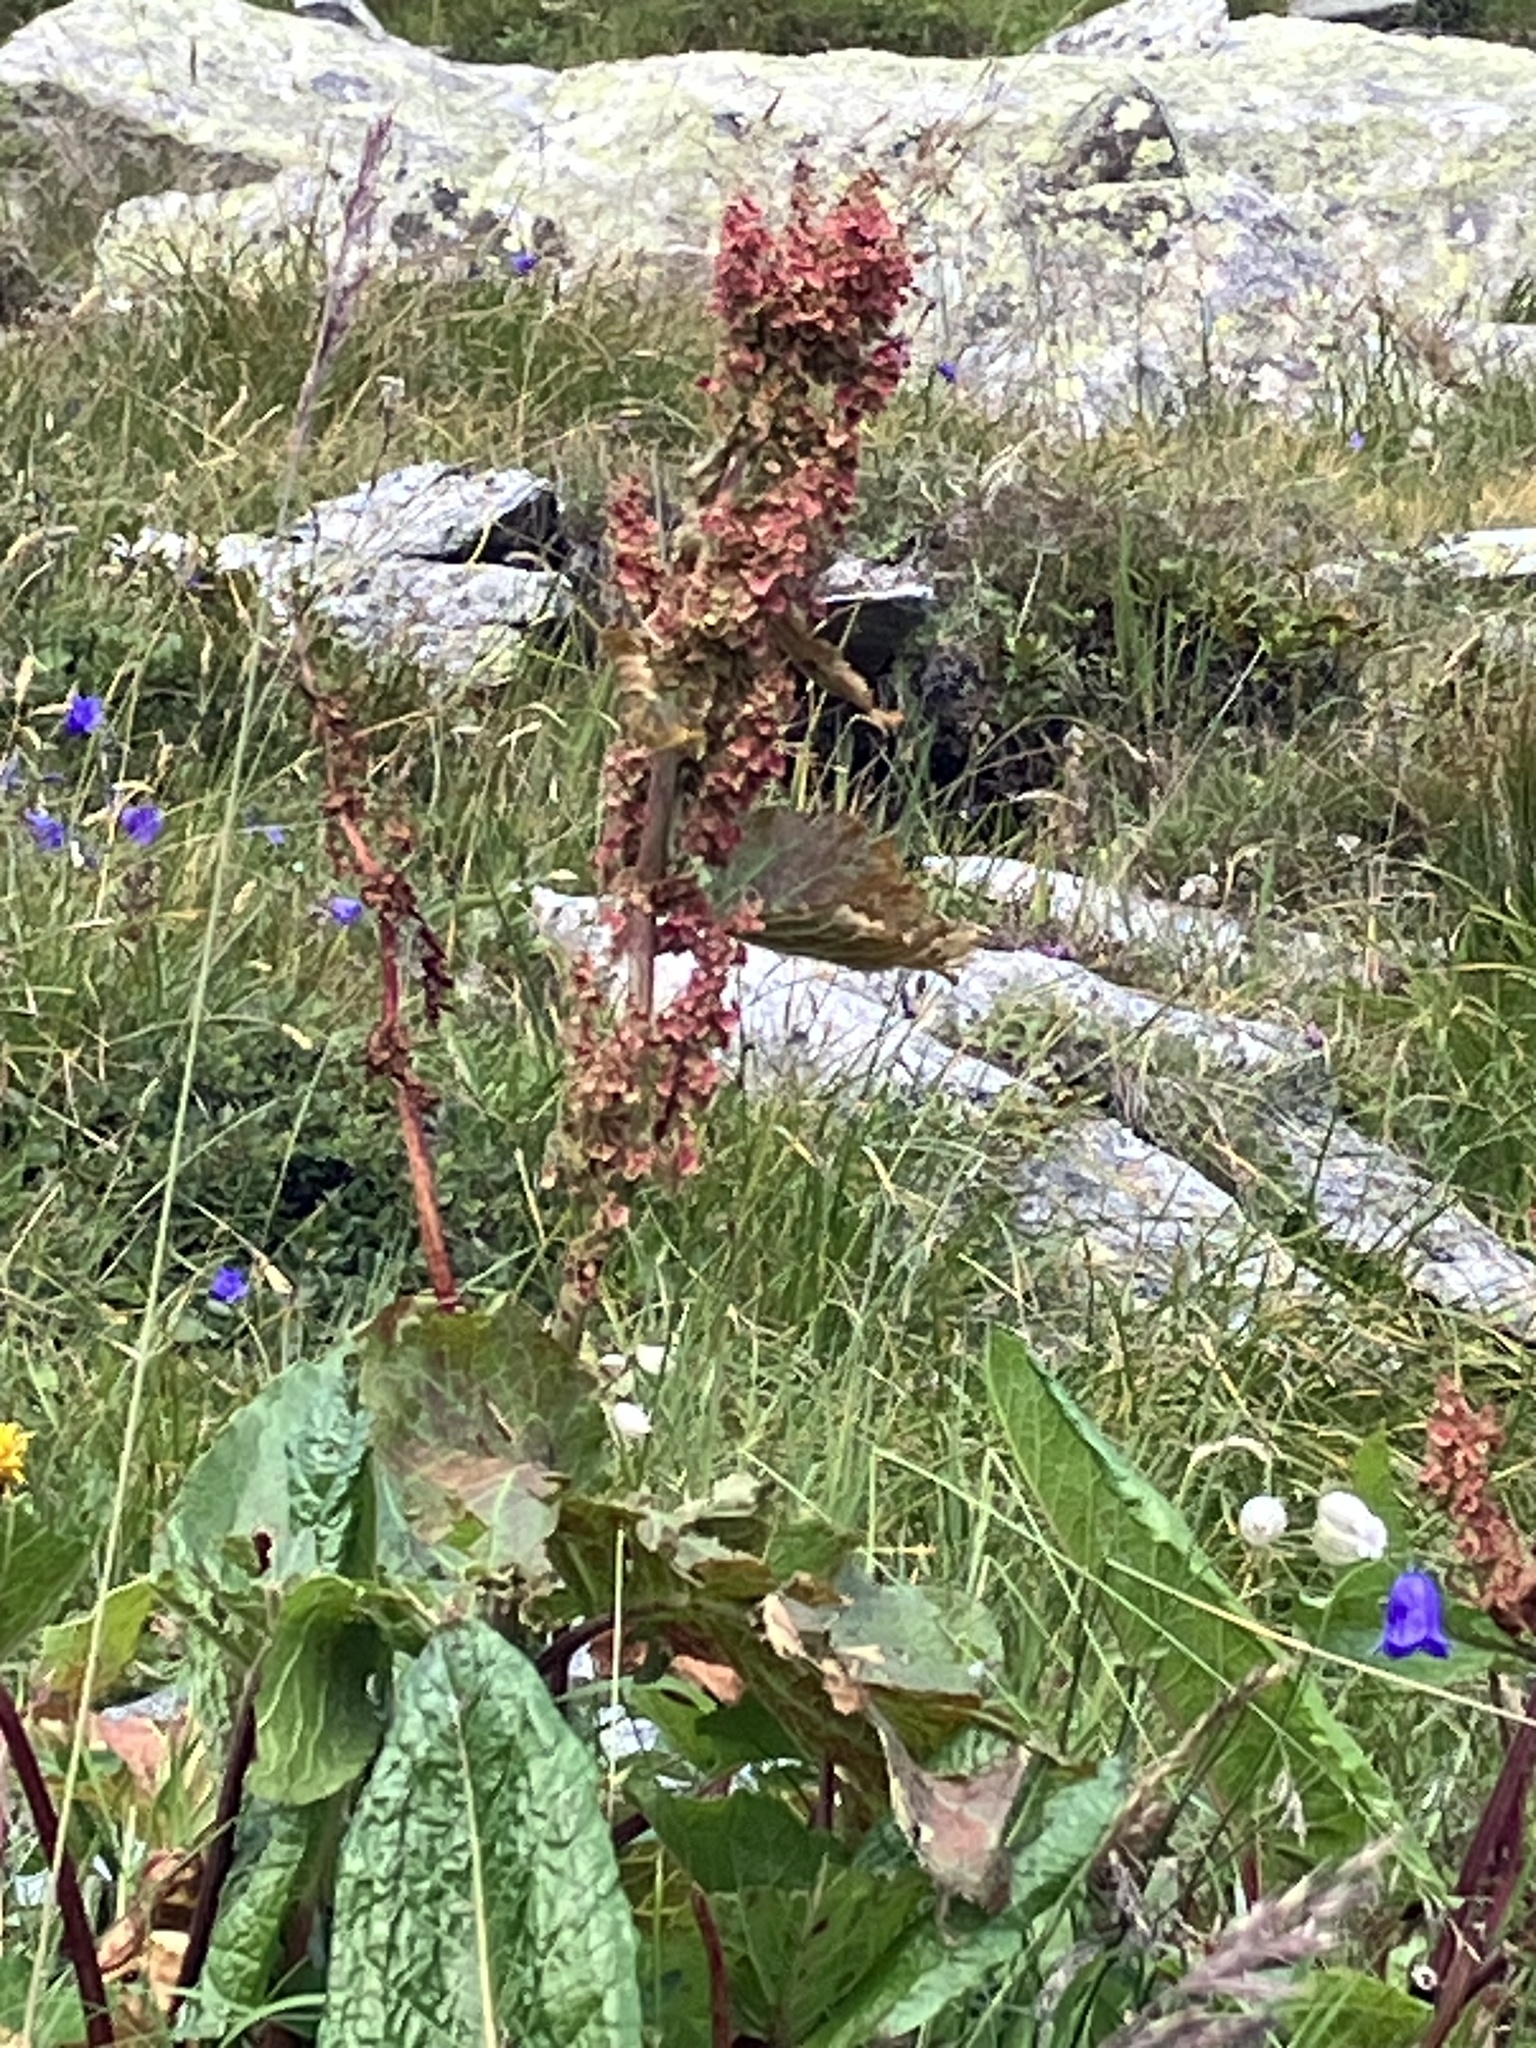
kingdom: Plantae
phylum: Tracheophyta
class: Magnoliopsida
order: Caryophyllales
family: Polygonaceae
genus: Rumex
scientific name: Rumex alpinus
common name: Alpine dock
